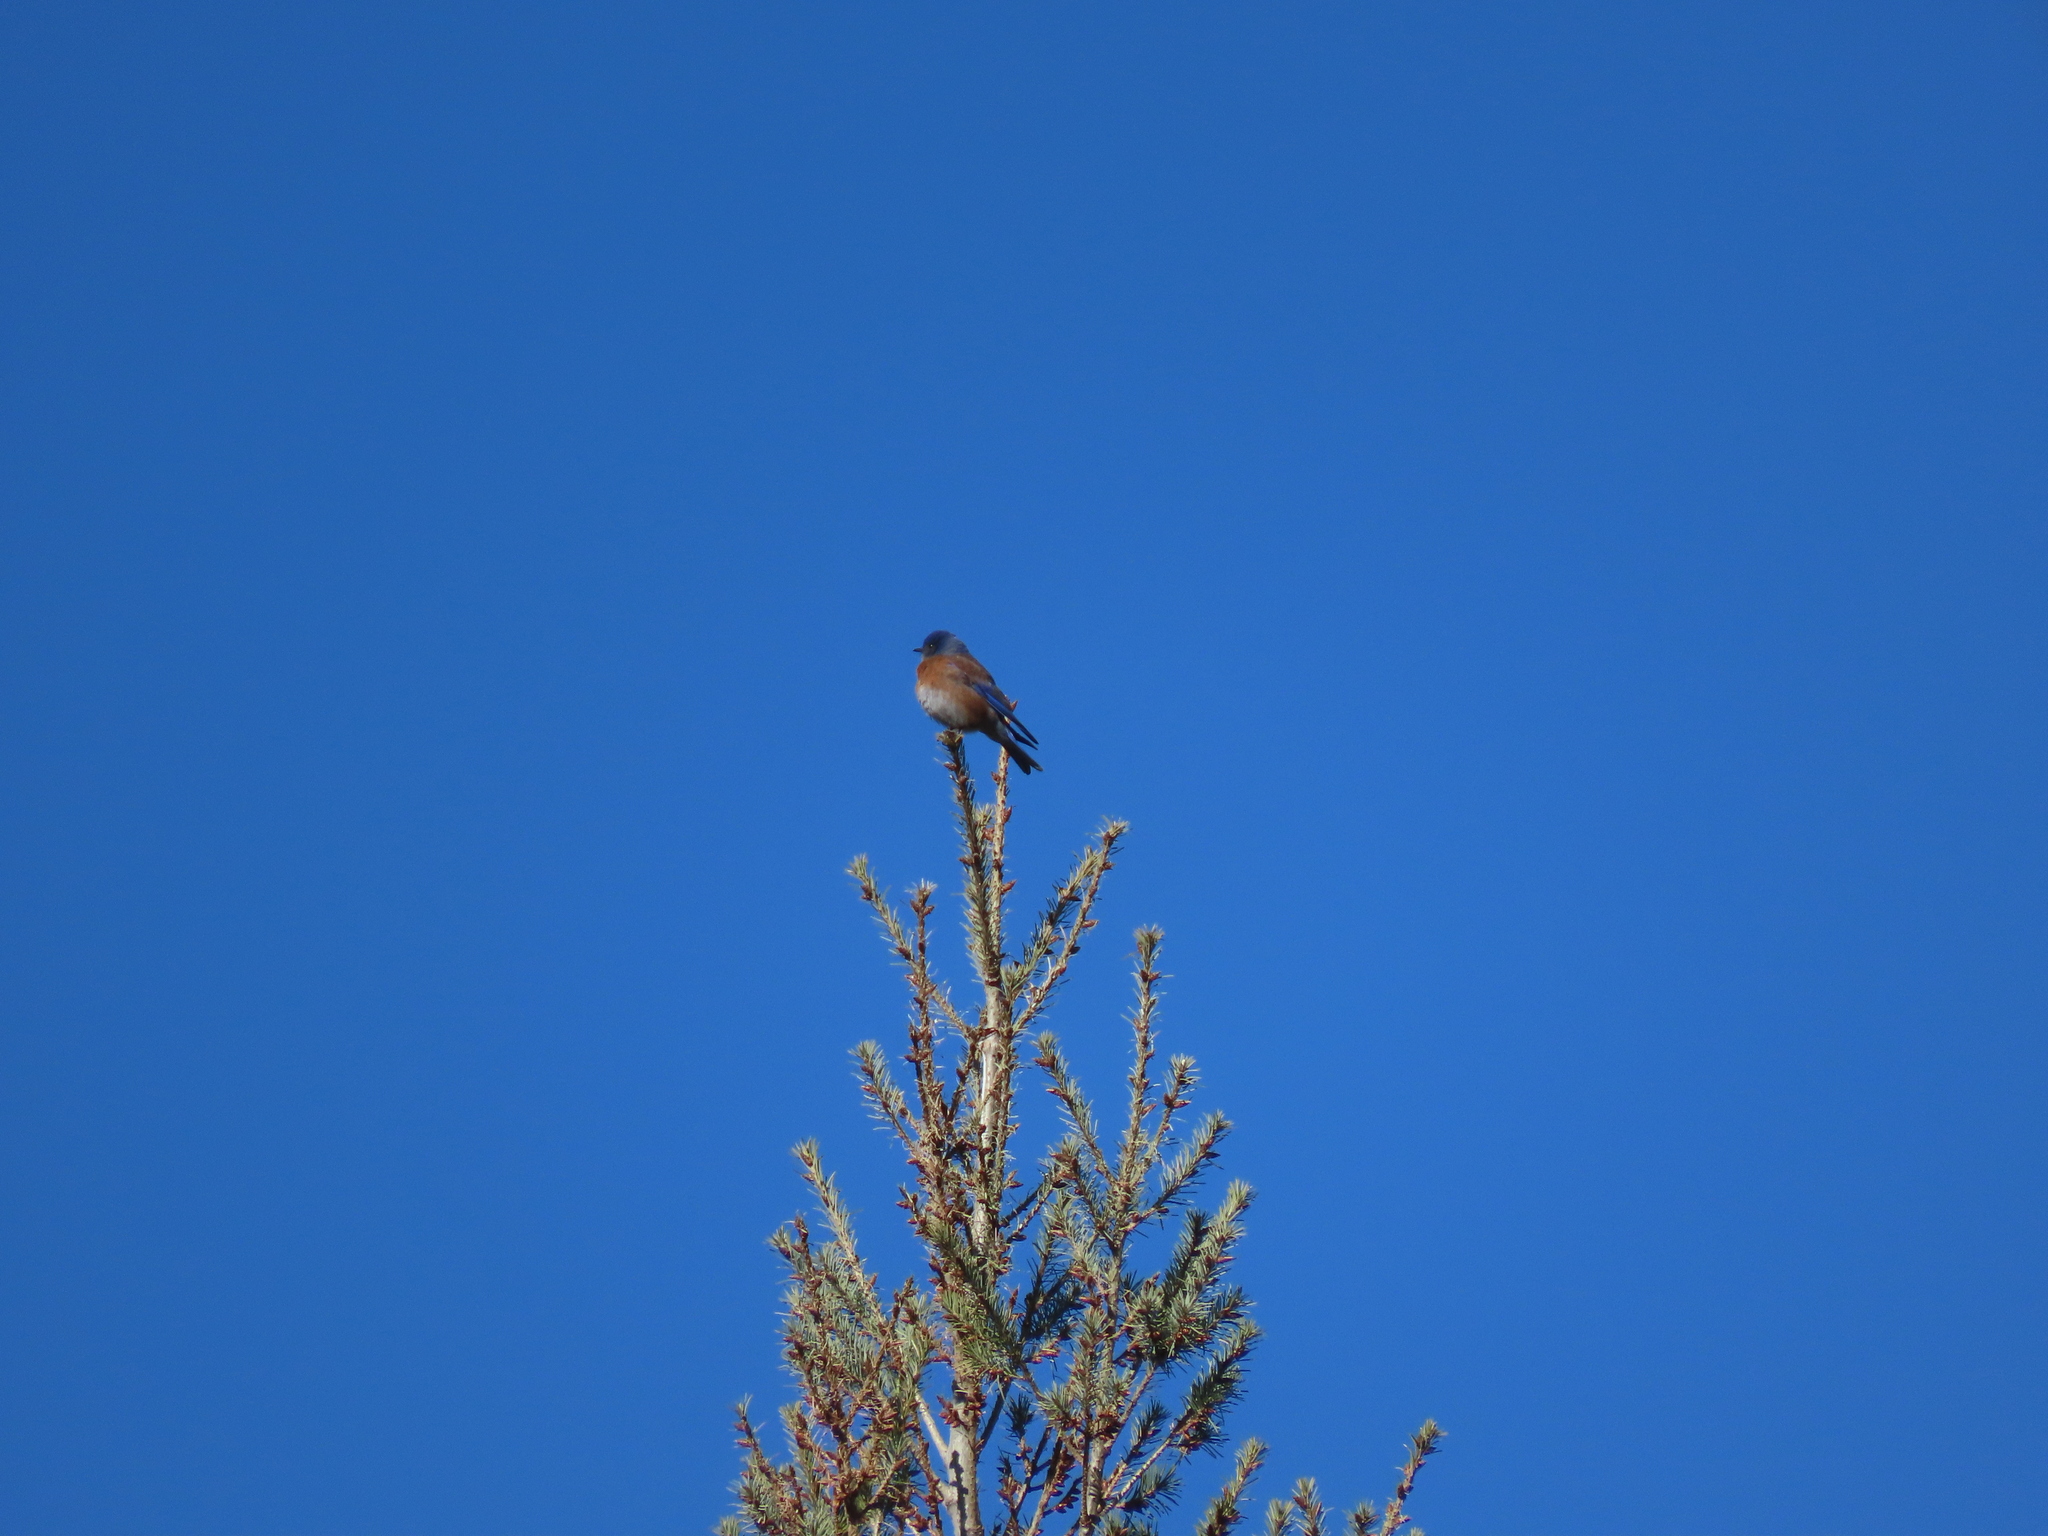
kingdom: Animalia
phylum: Chordata
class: Aves
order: Passeriformes
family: Turdidae
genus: Sialia
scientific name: Sialia mexicana
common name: Western bluebird
